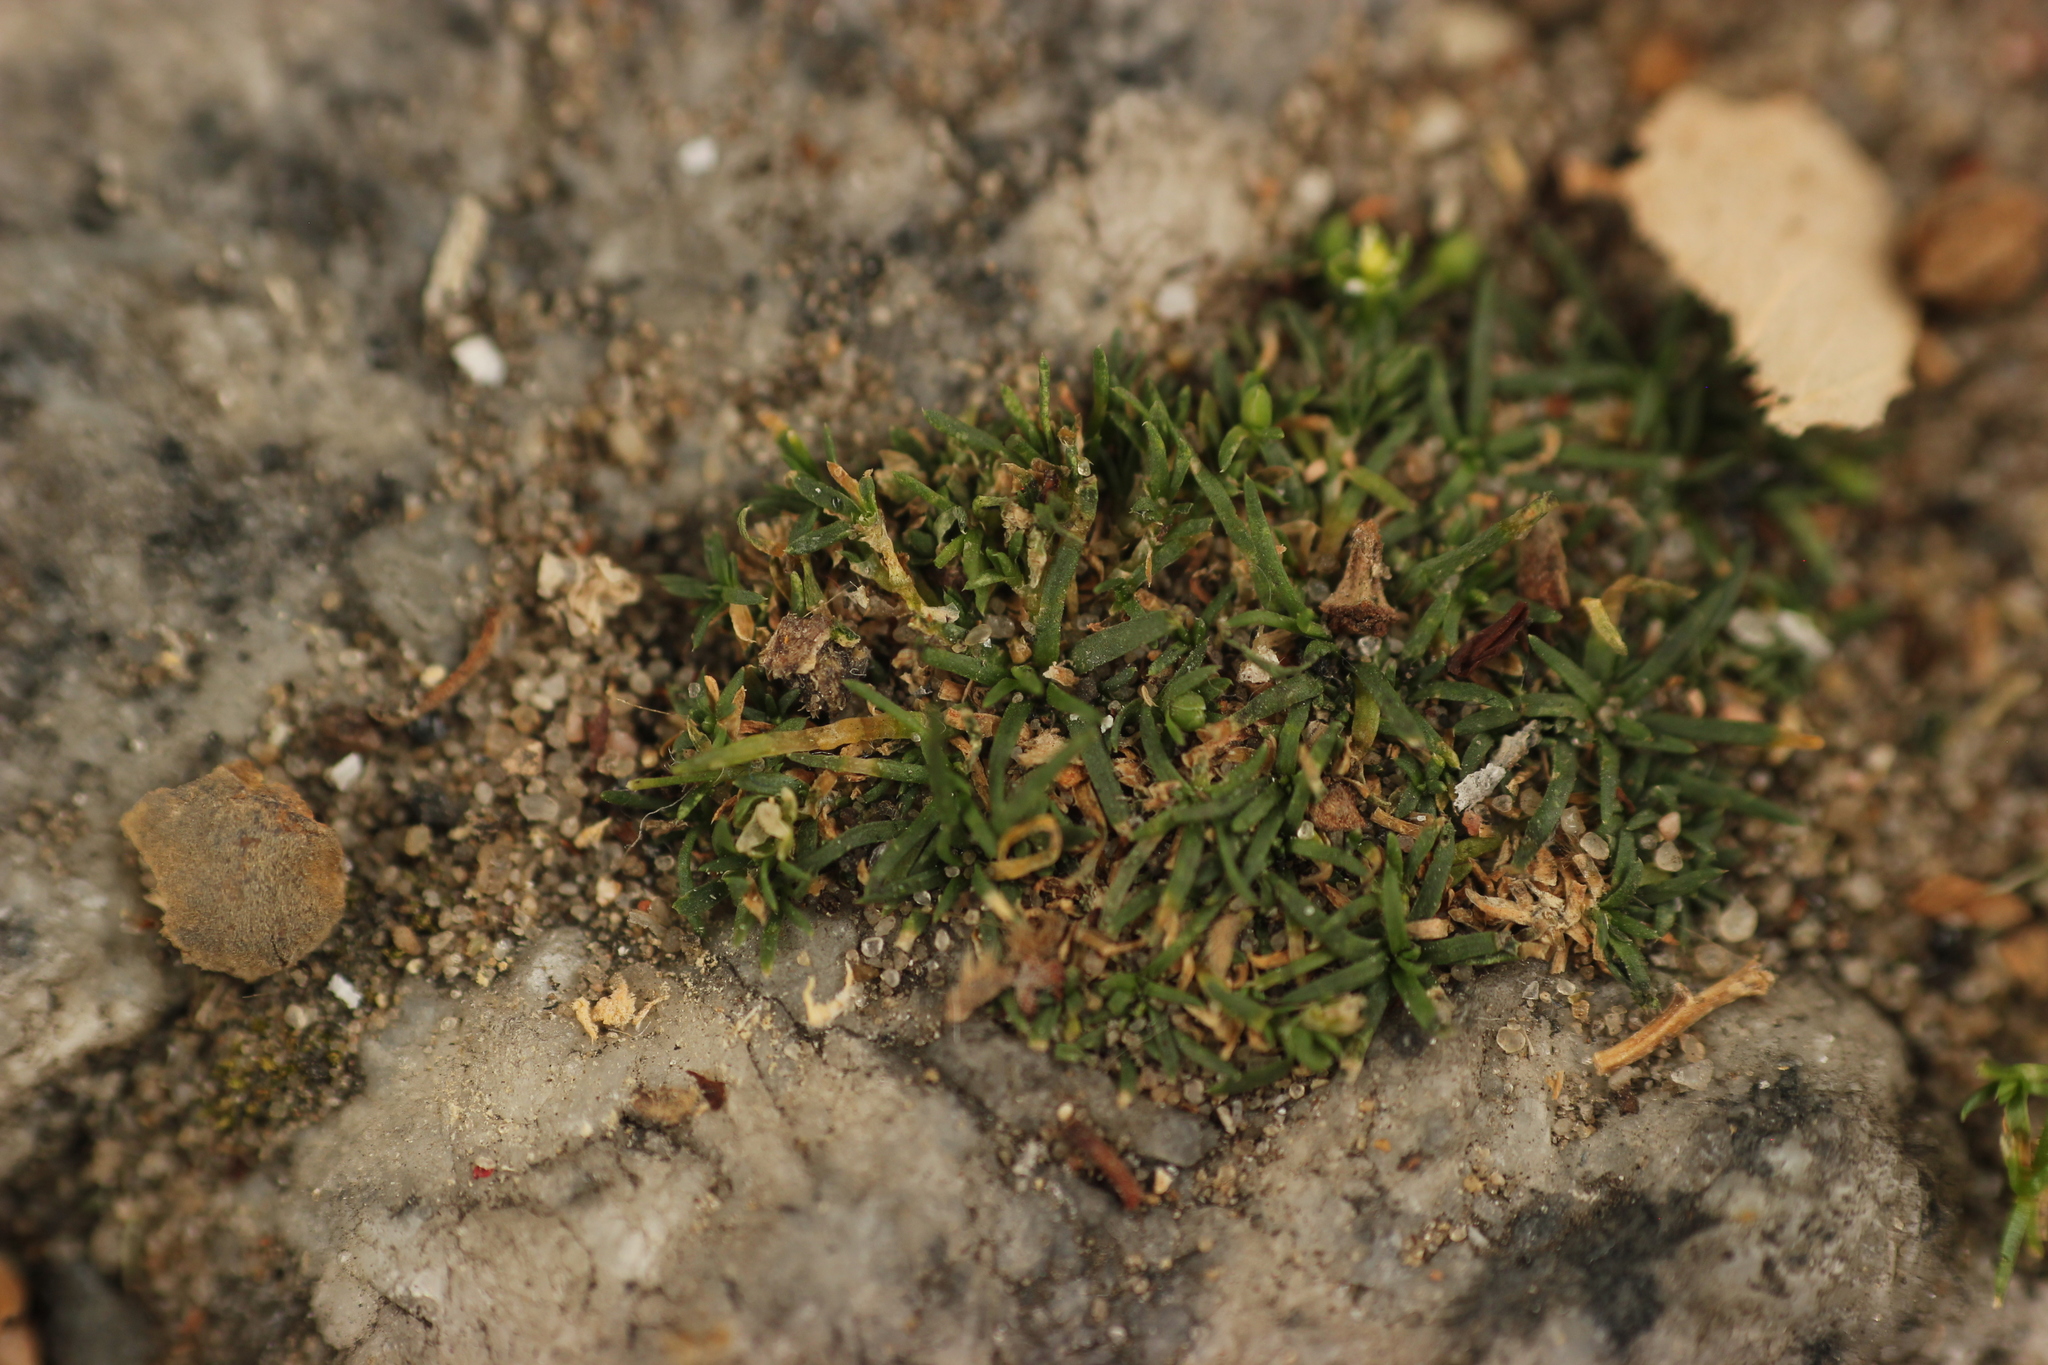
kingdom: Plantae
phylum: Tracheophyta
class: Magnoliopsida
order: Caryophyllales
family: Caryophyllaceae
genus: Sagina
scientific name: Sagina procumbens
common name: Procumbent pearlwort
